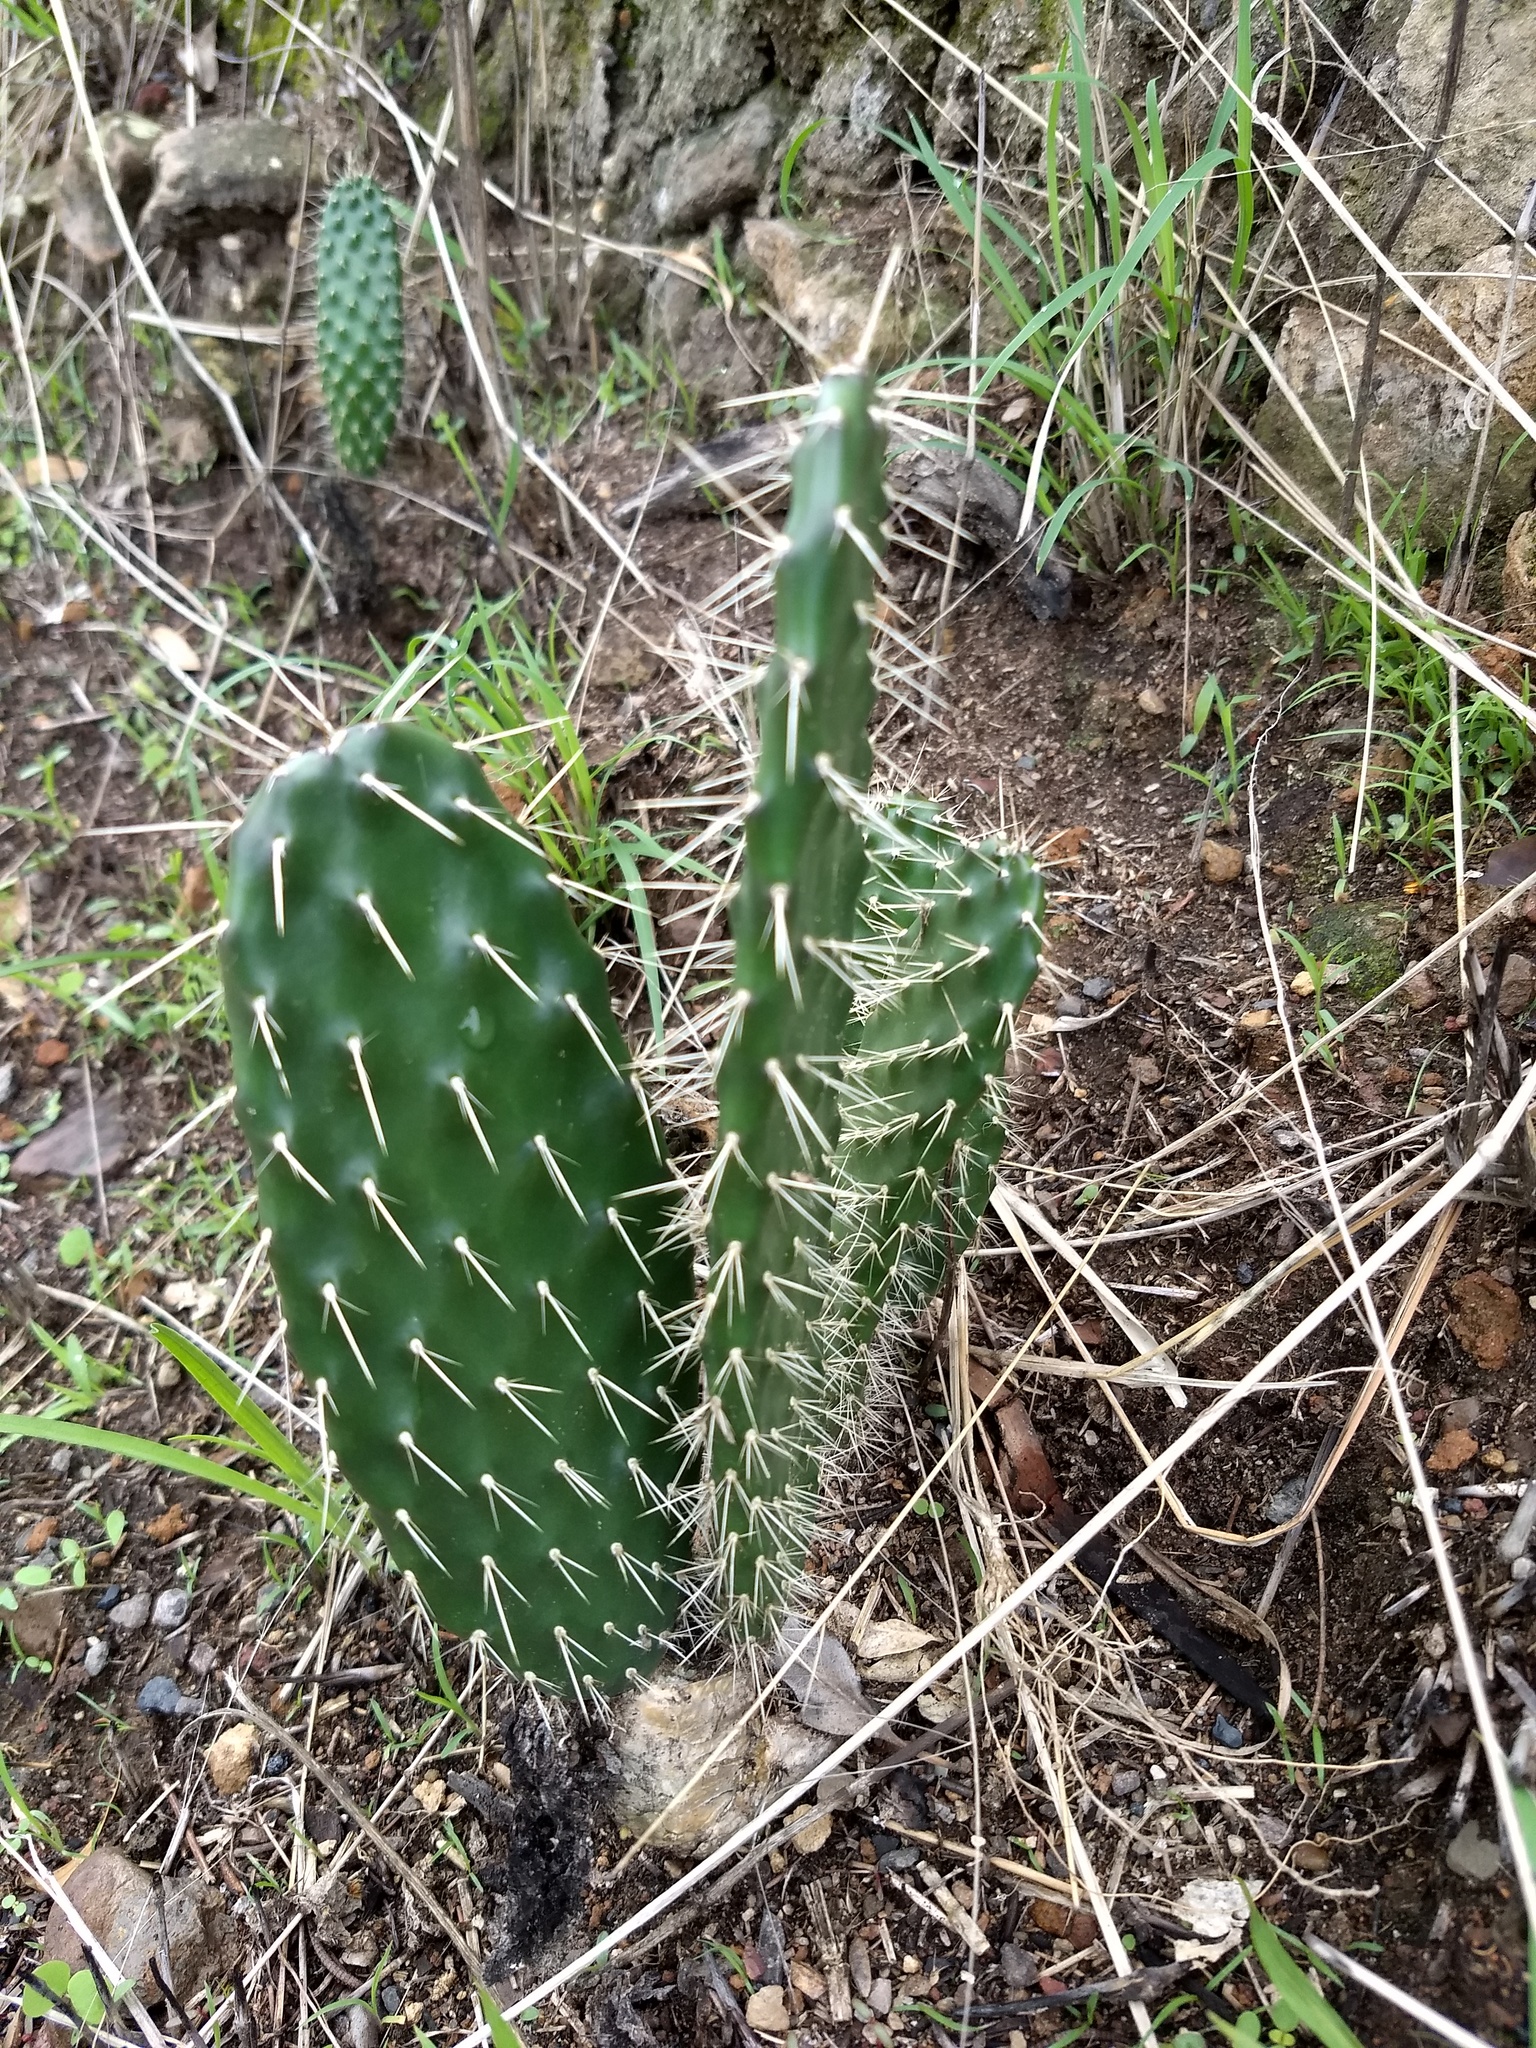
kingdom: Plantae
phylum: Tracheophyta
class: Magnoliopsida
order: Caryophyllales
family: Cactaceae
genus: Opuntia
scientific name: Opuntia lasiacantha
